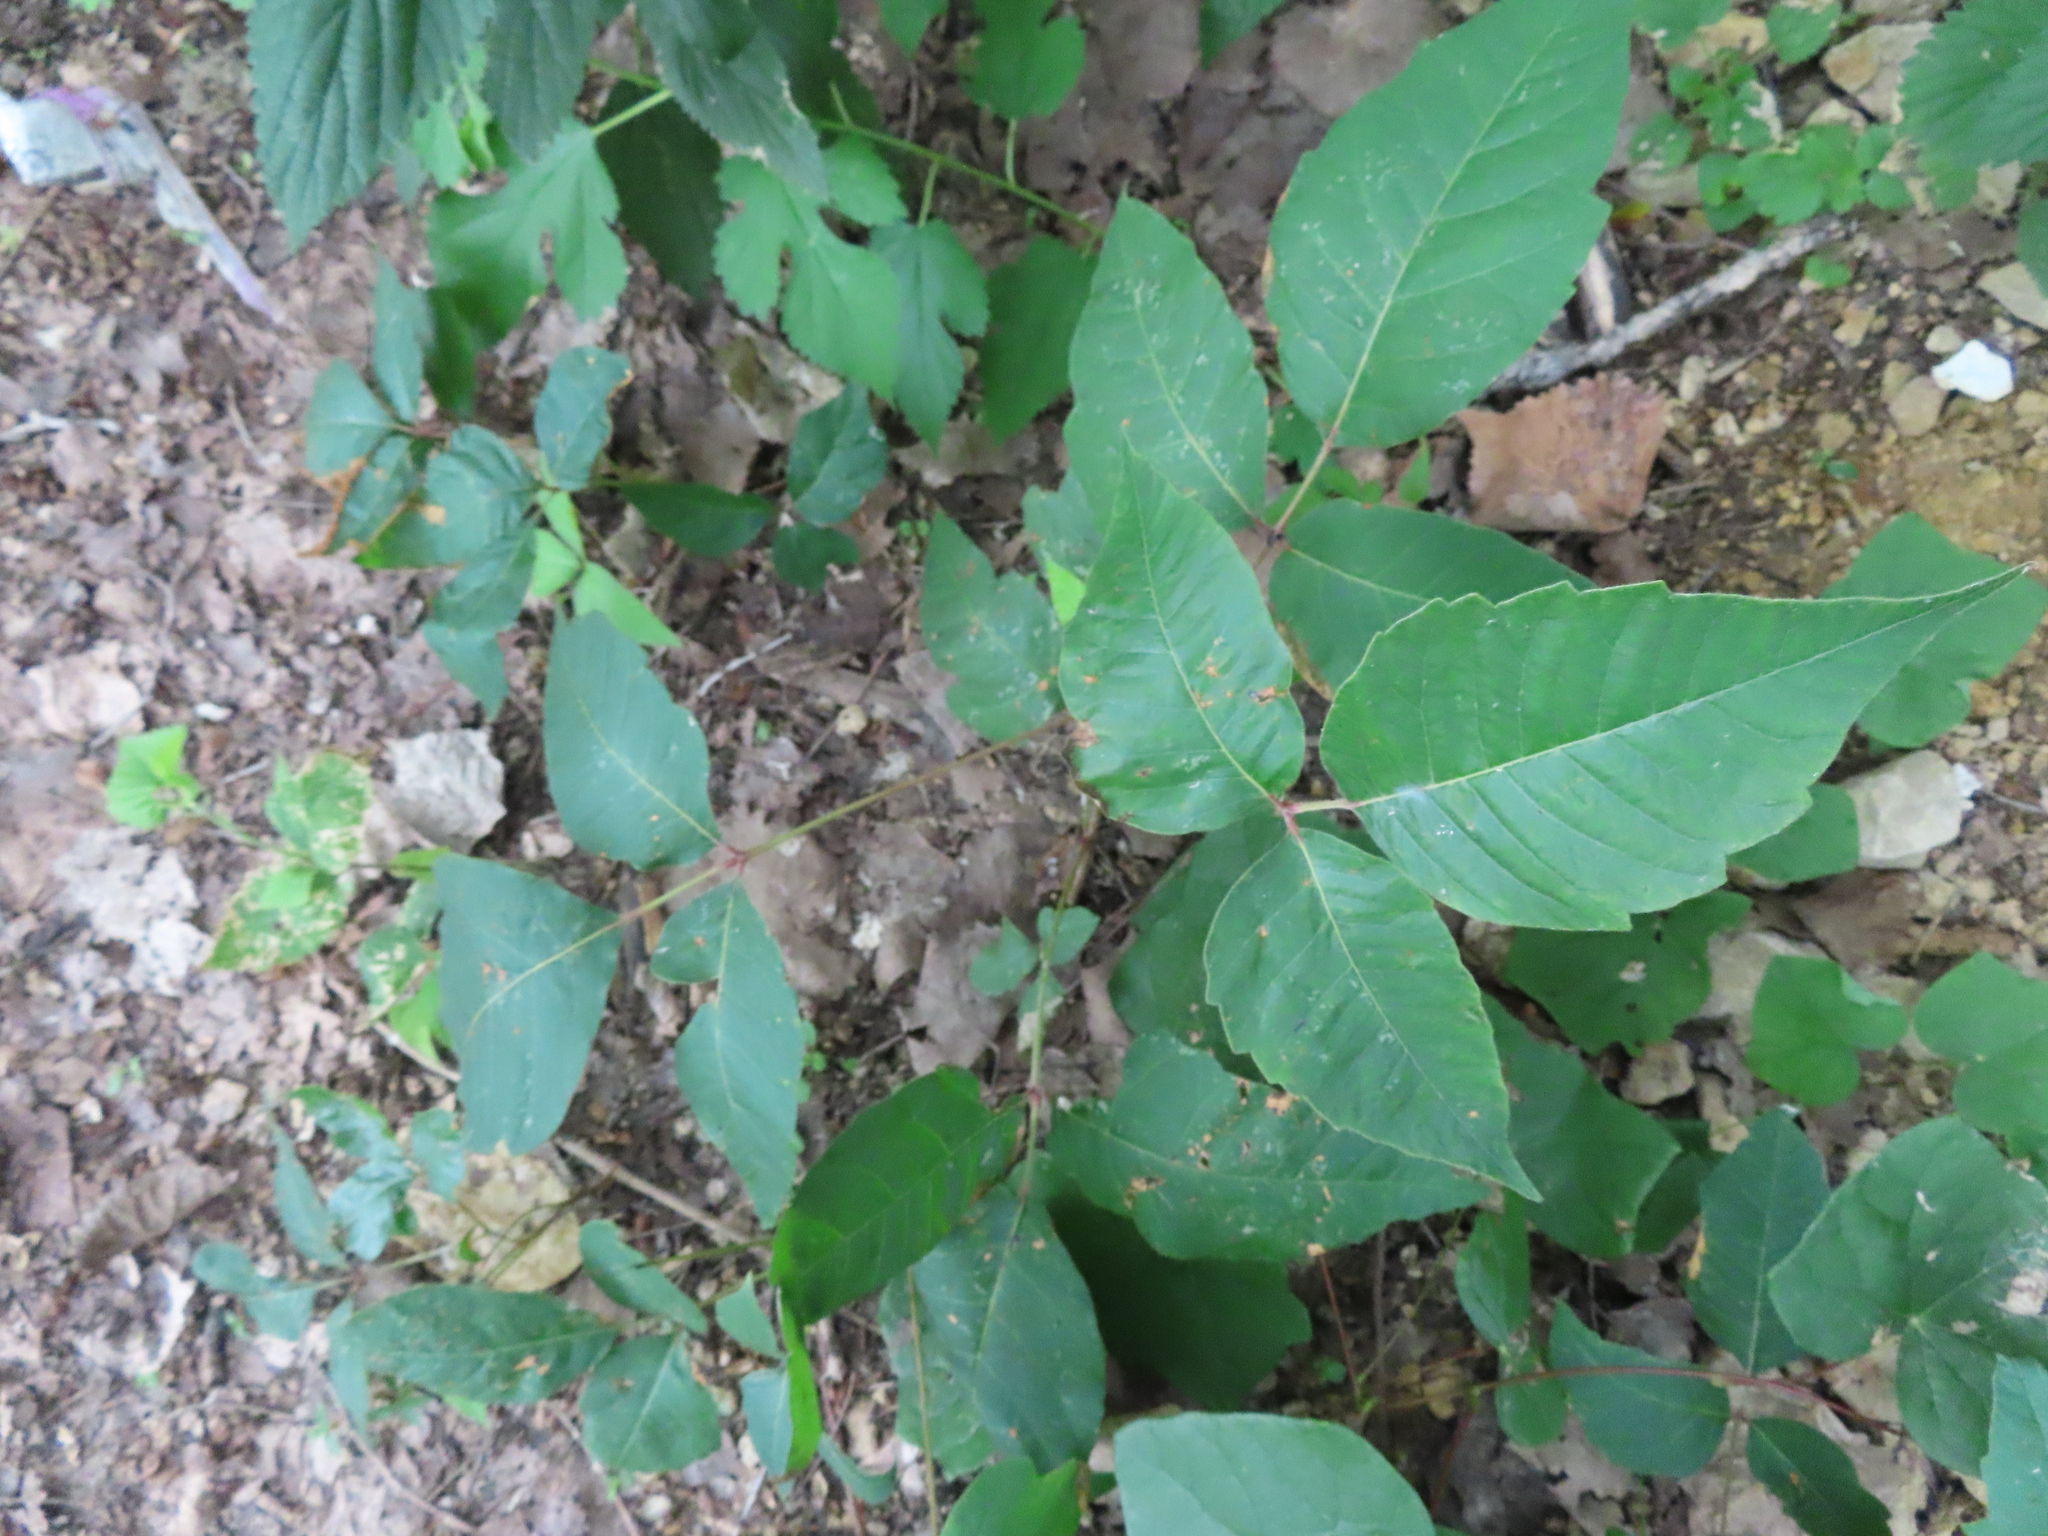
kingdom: Plantae
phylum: Tracheophyta
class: Magnoliopsida
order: Sapindales
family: Anacardiaceae
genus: Toxicodendron
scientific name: Toxicodendron radicans
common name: Poison ivy
